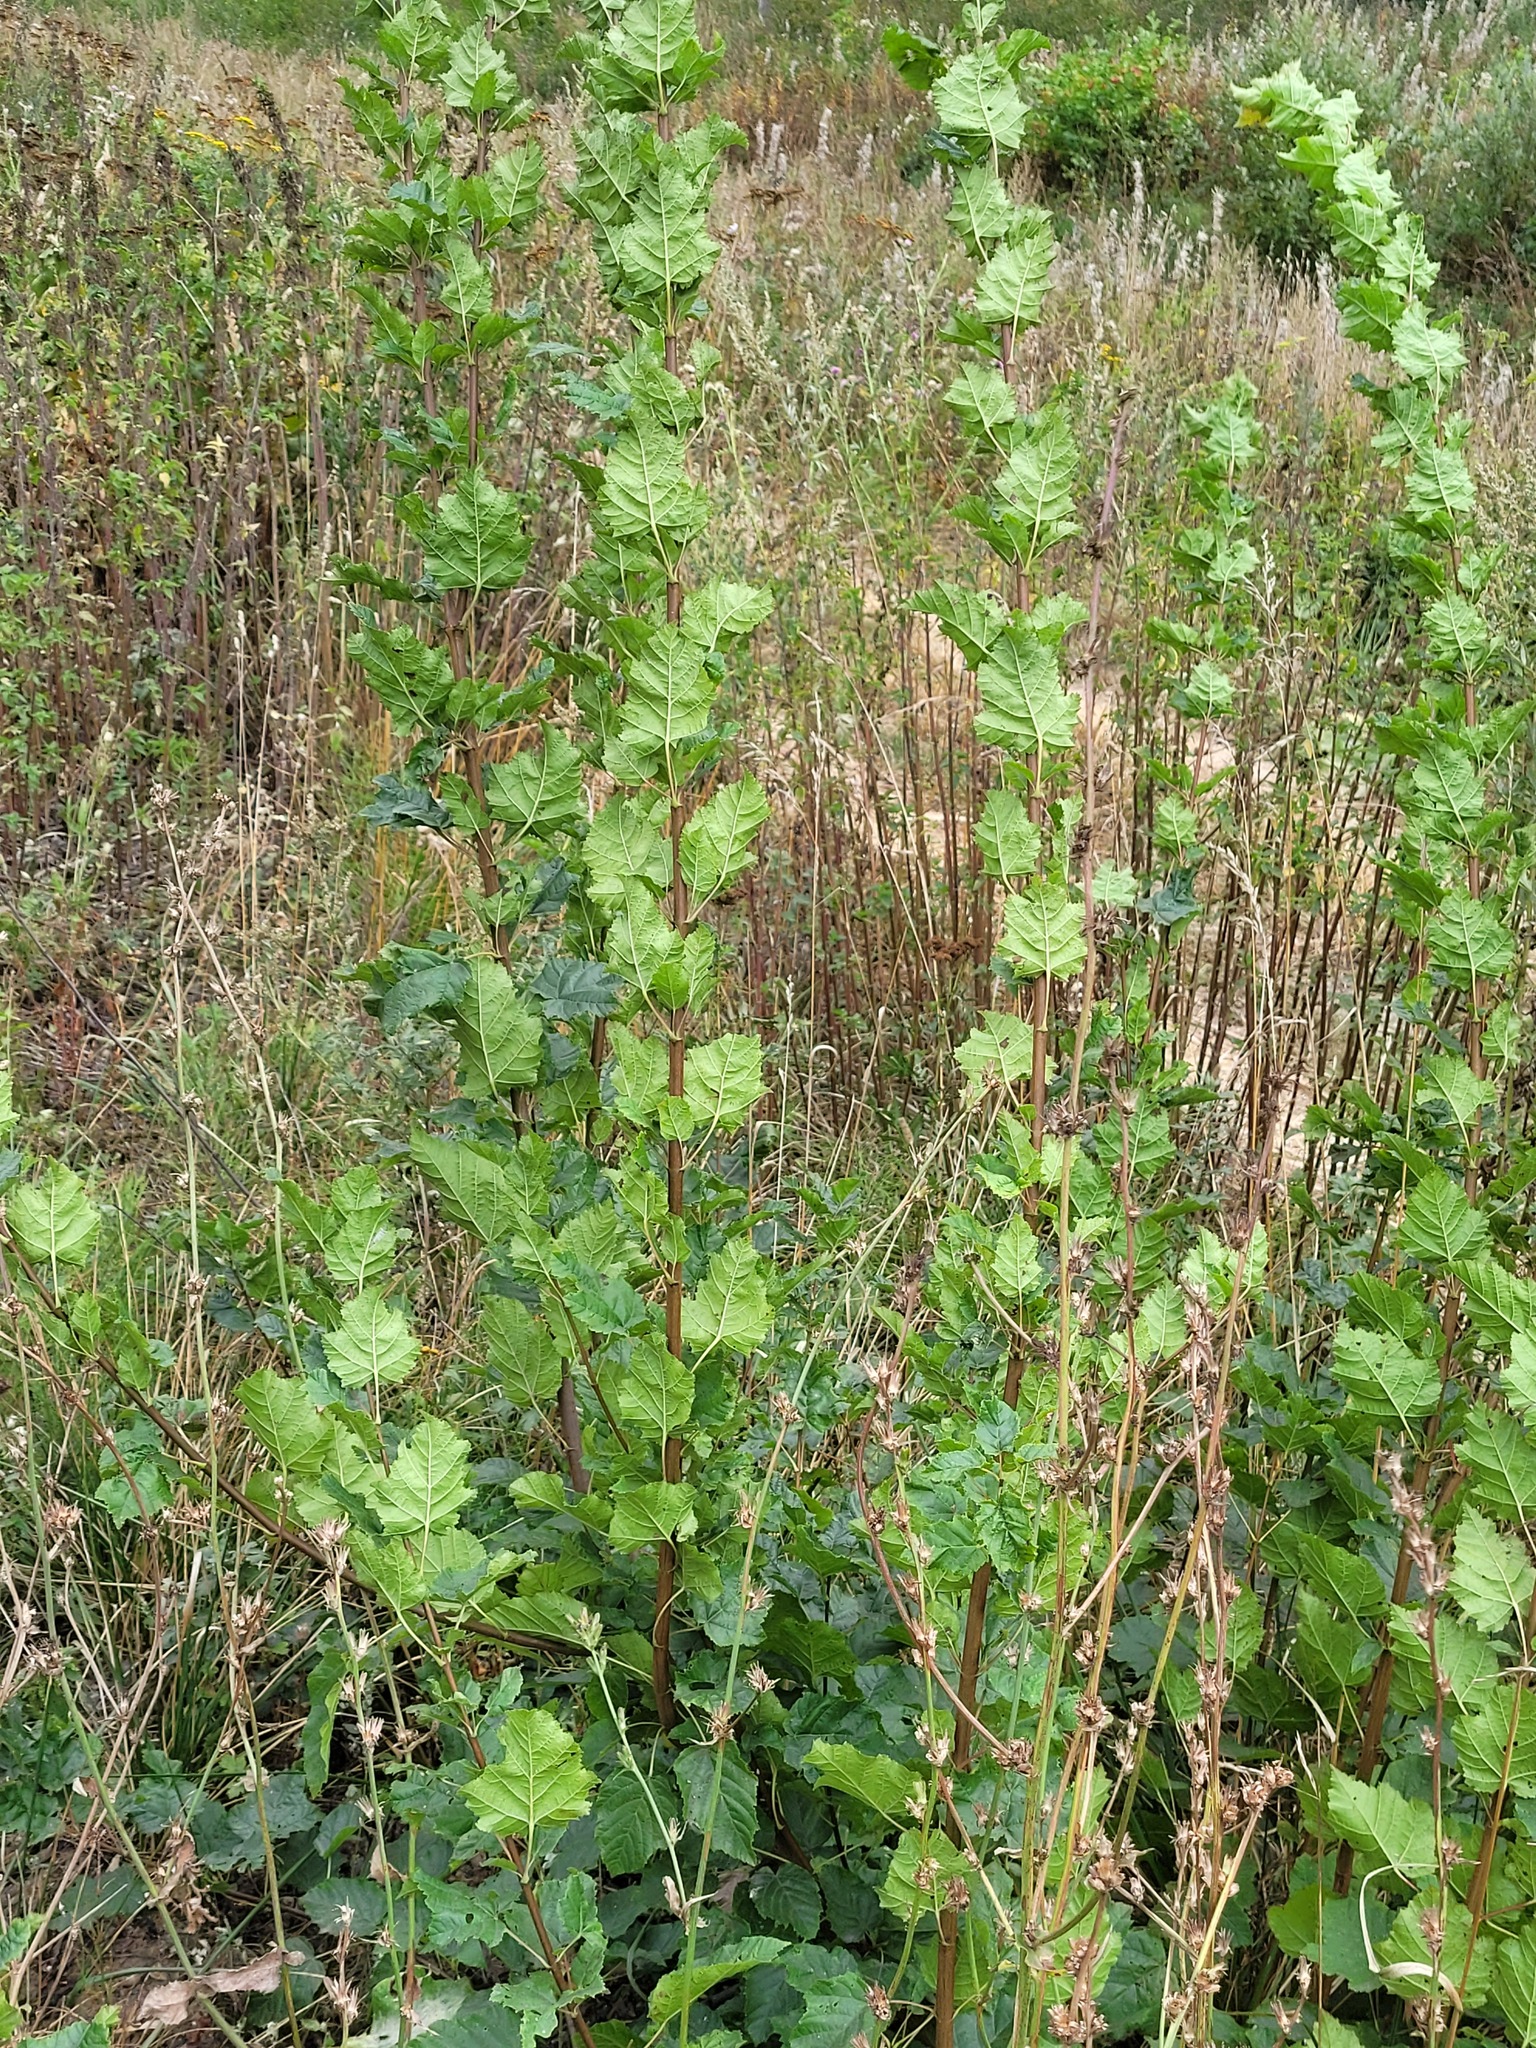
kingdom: Plantae
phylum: Tracheophyta
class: Magnoliopsida
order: Sapindales
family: Sapindaceae
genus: Acer
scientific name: Acer tataricum
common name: Tartar maple
